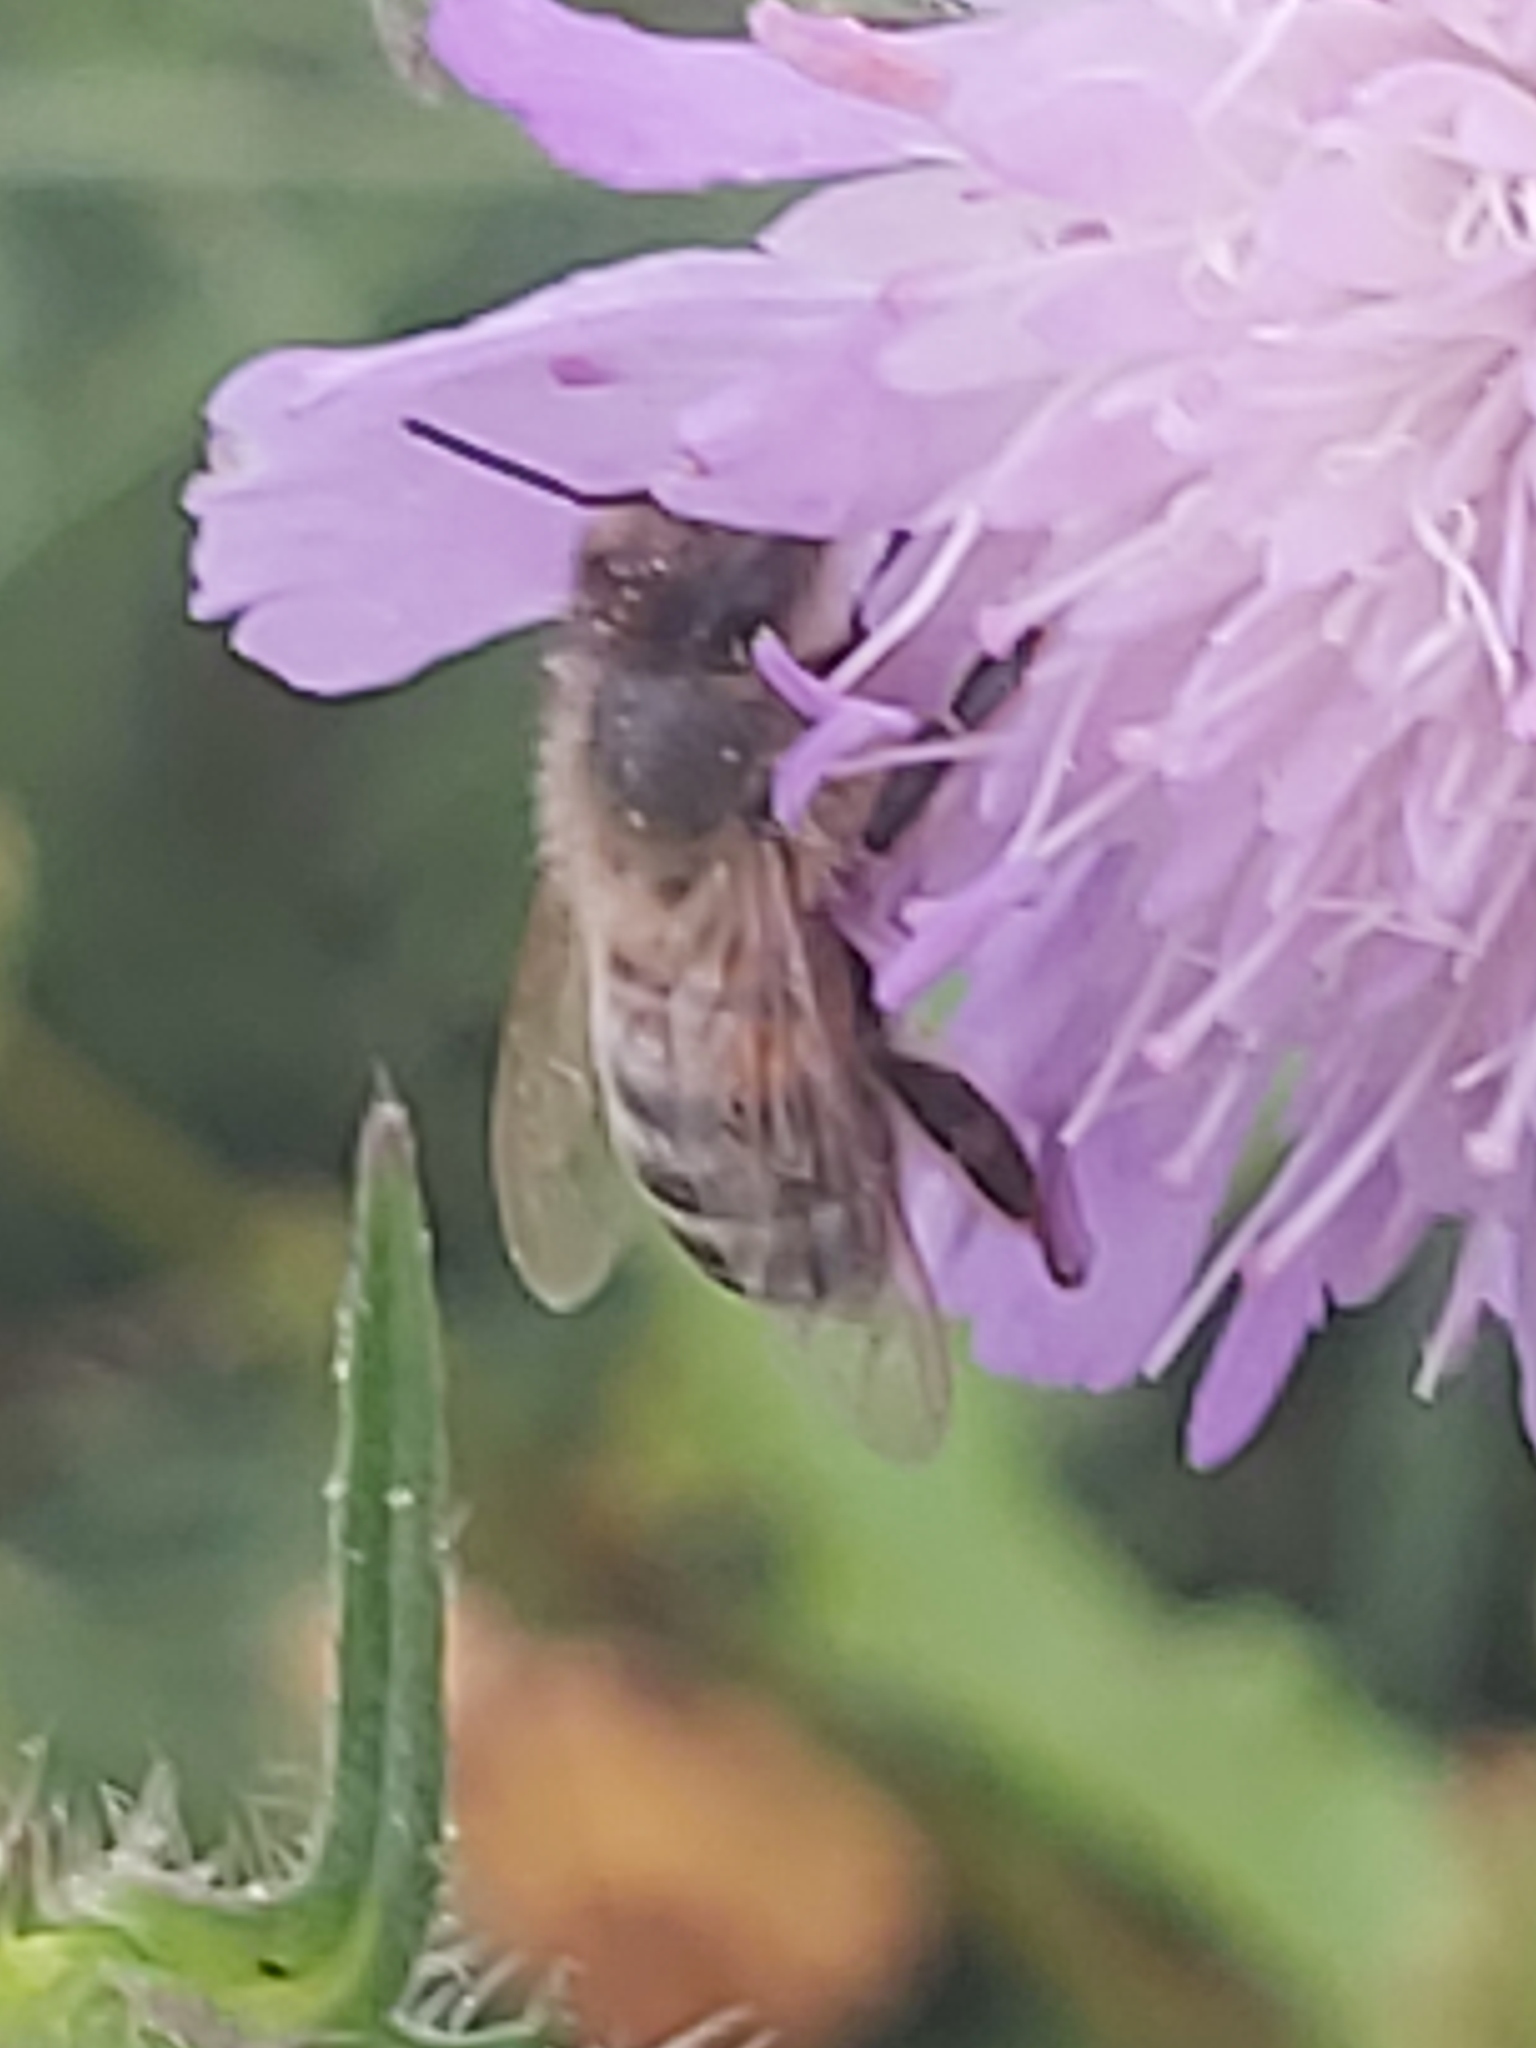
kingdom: Animalia
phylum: Arthropoda
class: Insecta
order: Hymenoptera
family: Apidae
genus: Apis
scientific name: Apis mellifera
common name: Honey bee
